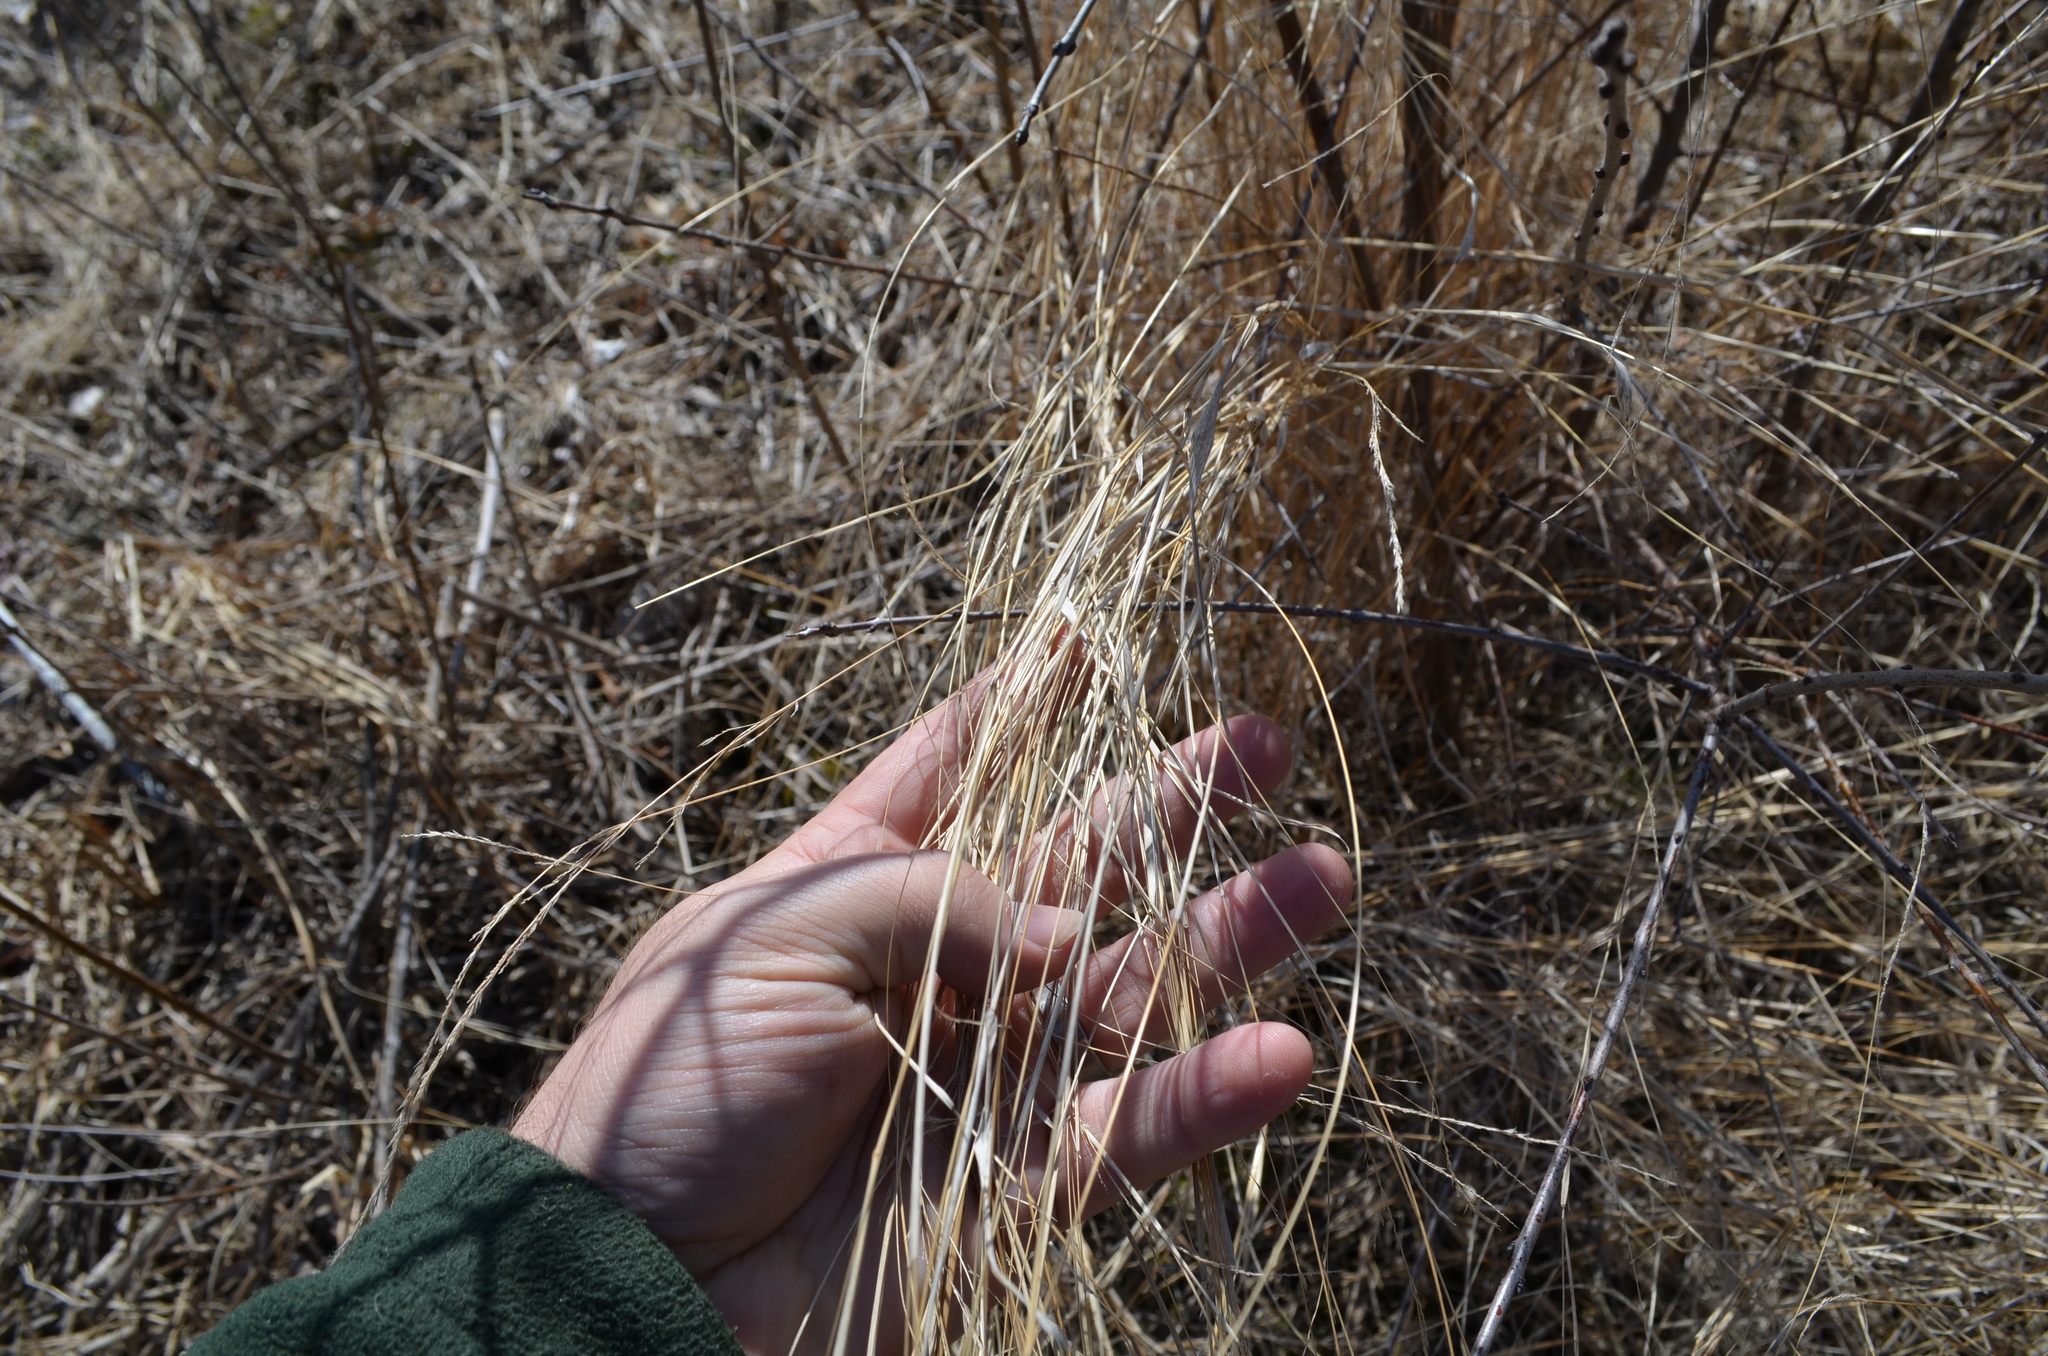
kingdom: Plantae
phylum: Tracheophyta
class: Liliopsida
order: Poales
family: Poaceae
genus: Calamagrostis
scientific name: Calamagrostis canadensis
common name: Canada bluejoint
